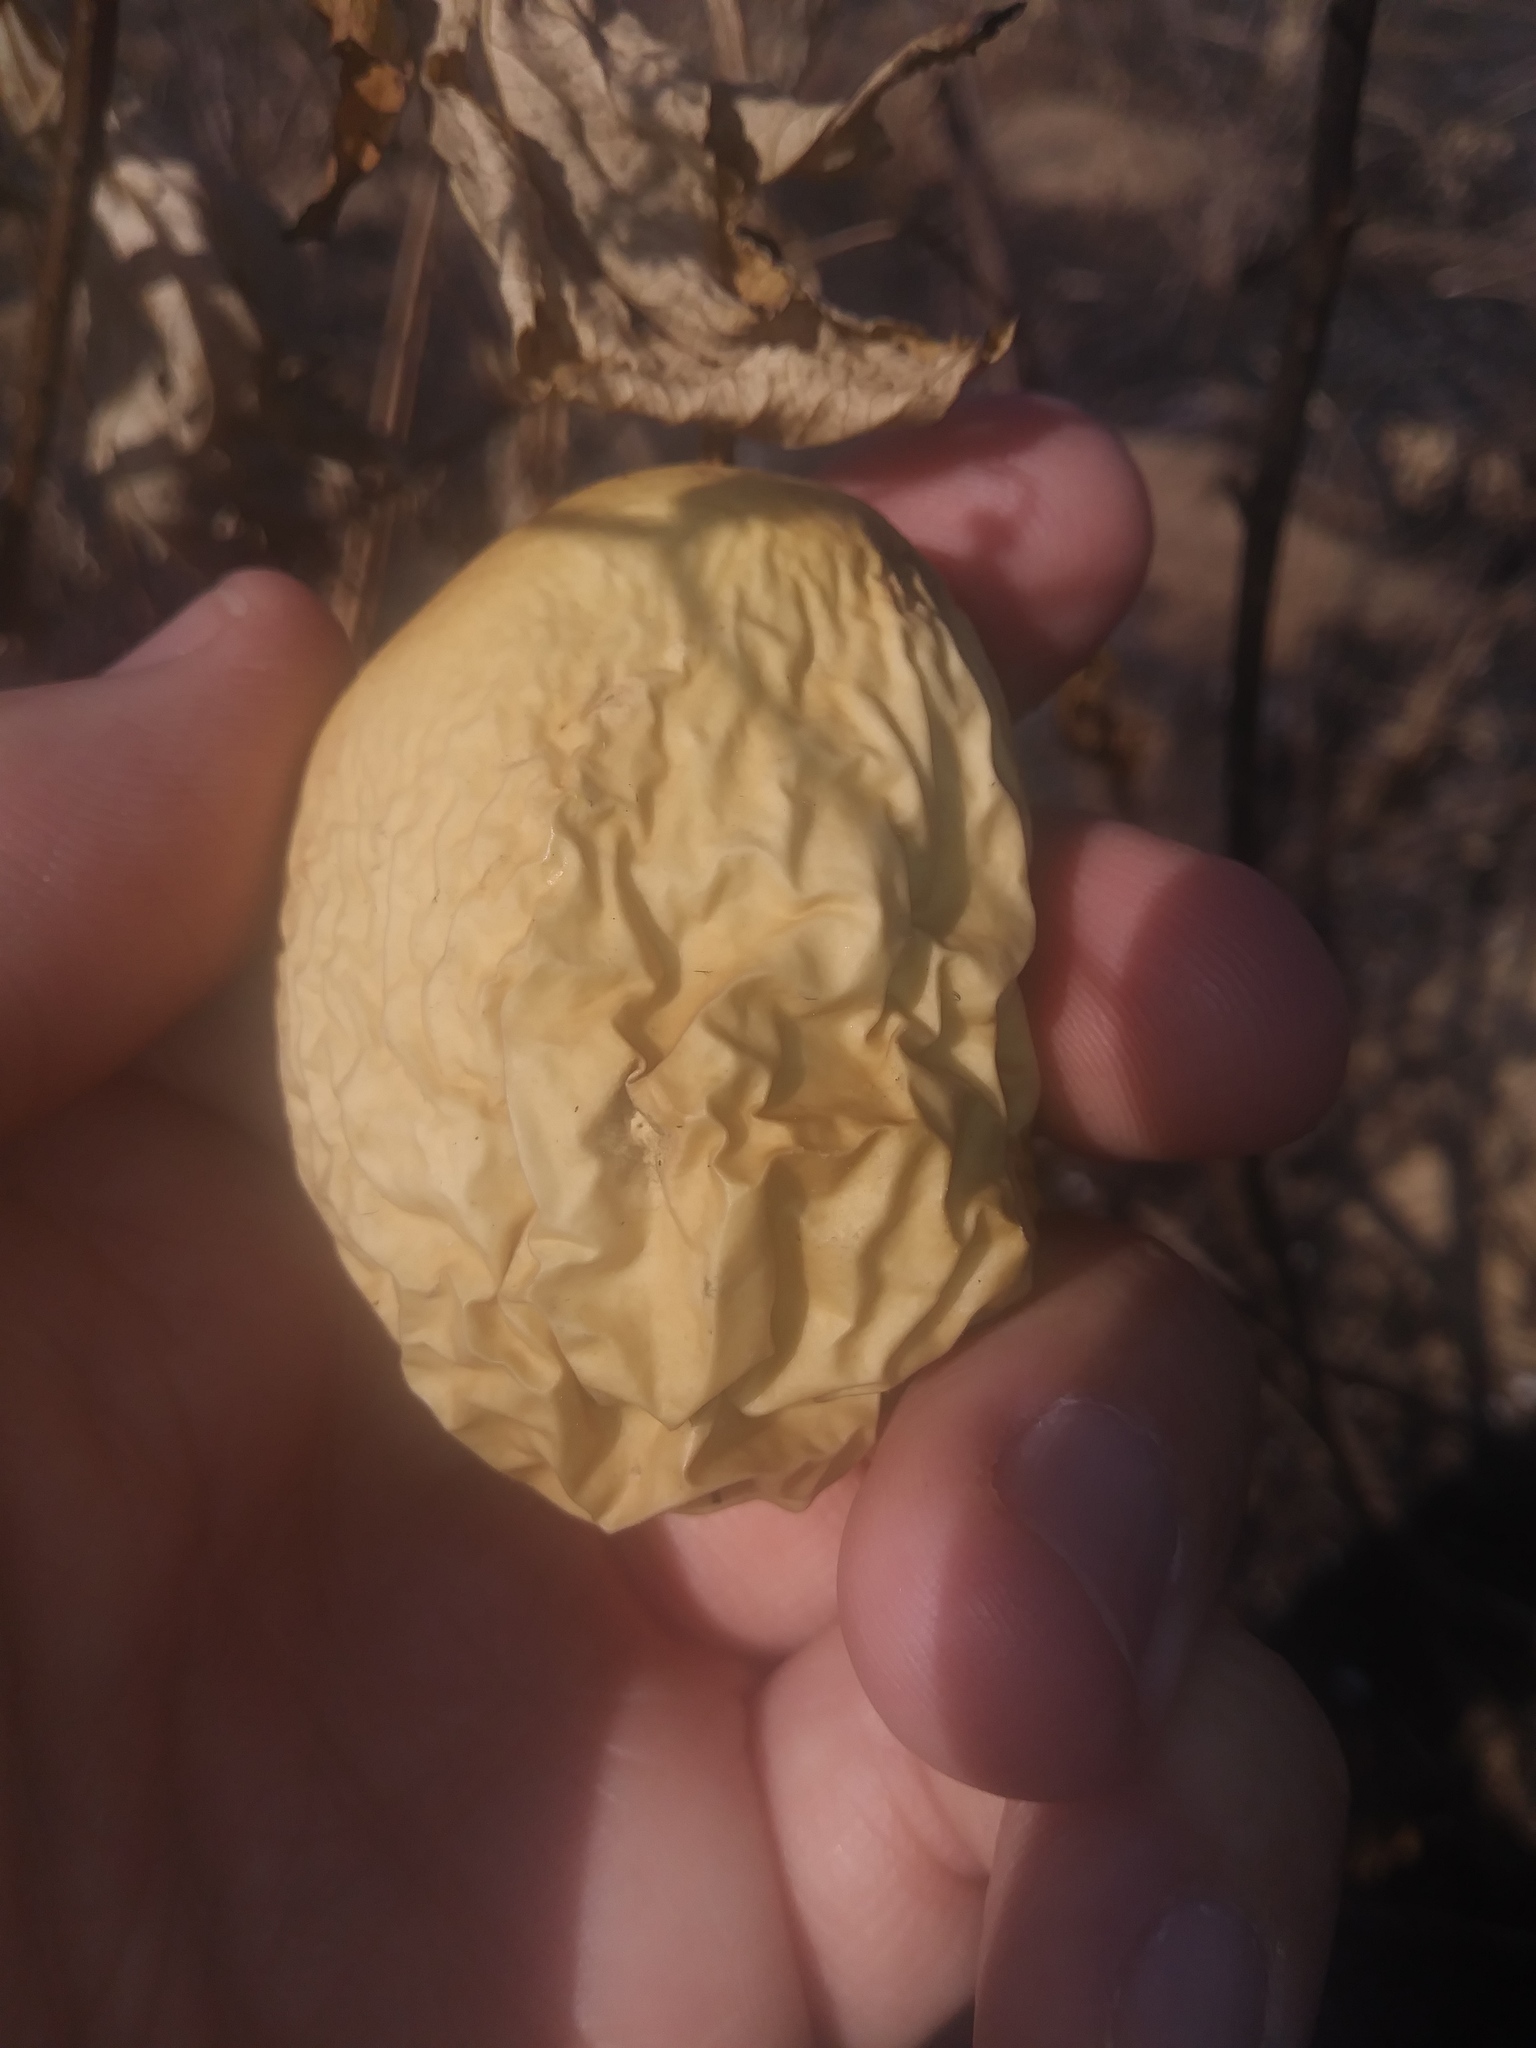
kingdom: Plantae
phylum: Tracheophyta
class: Magnoliopsida
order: Malpighiales
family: Passifloraceae
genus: Passiflora
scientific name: Passiflora incarnata
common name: Apricot-vine
